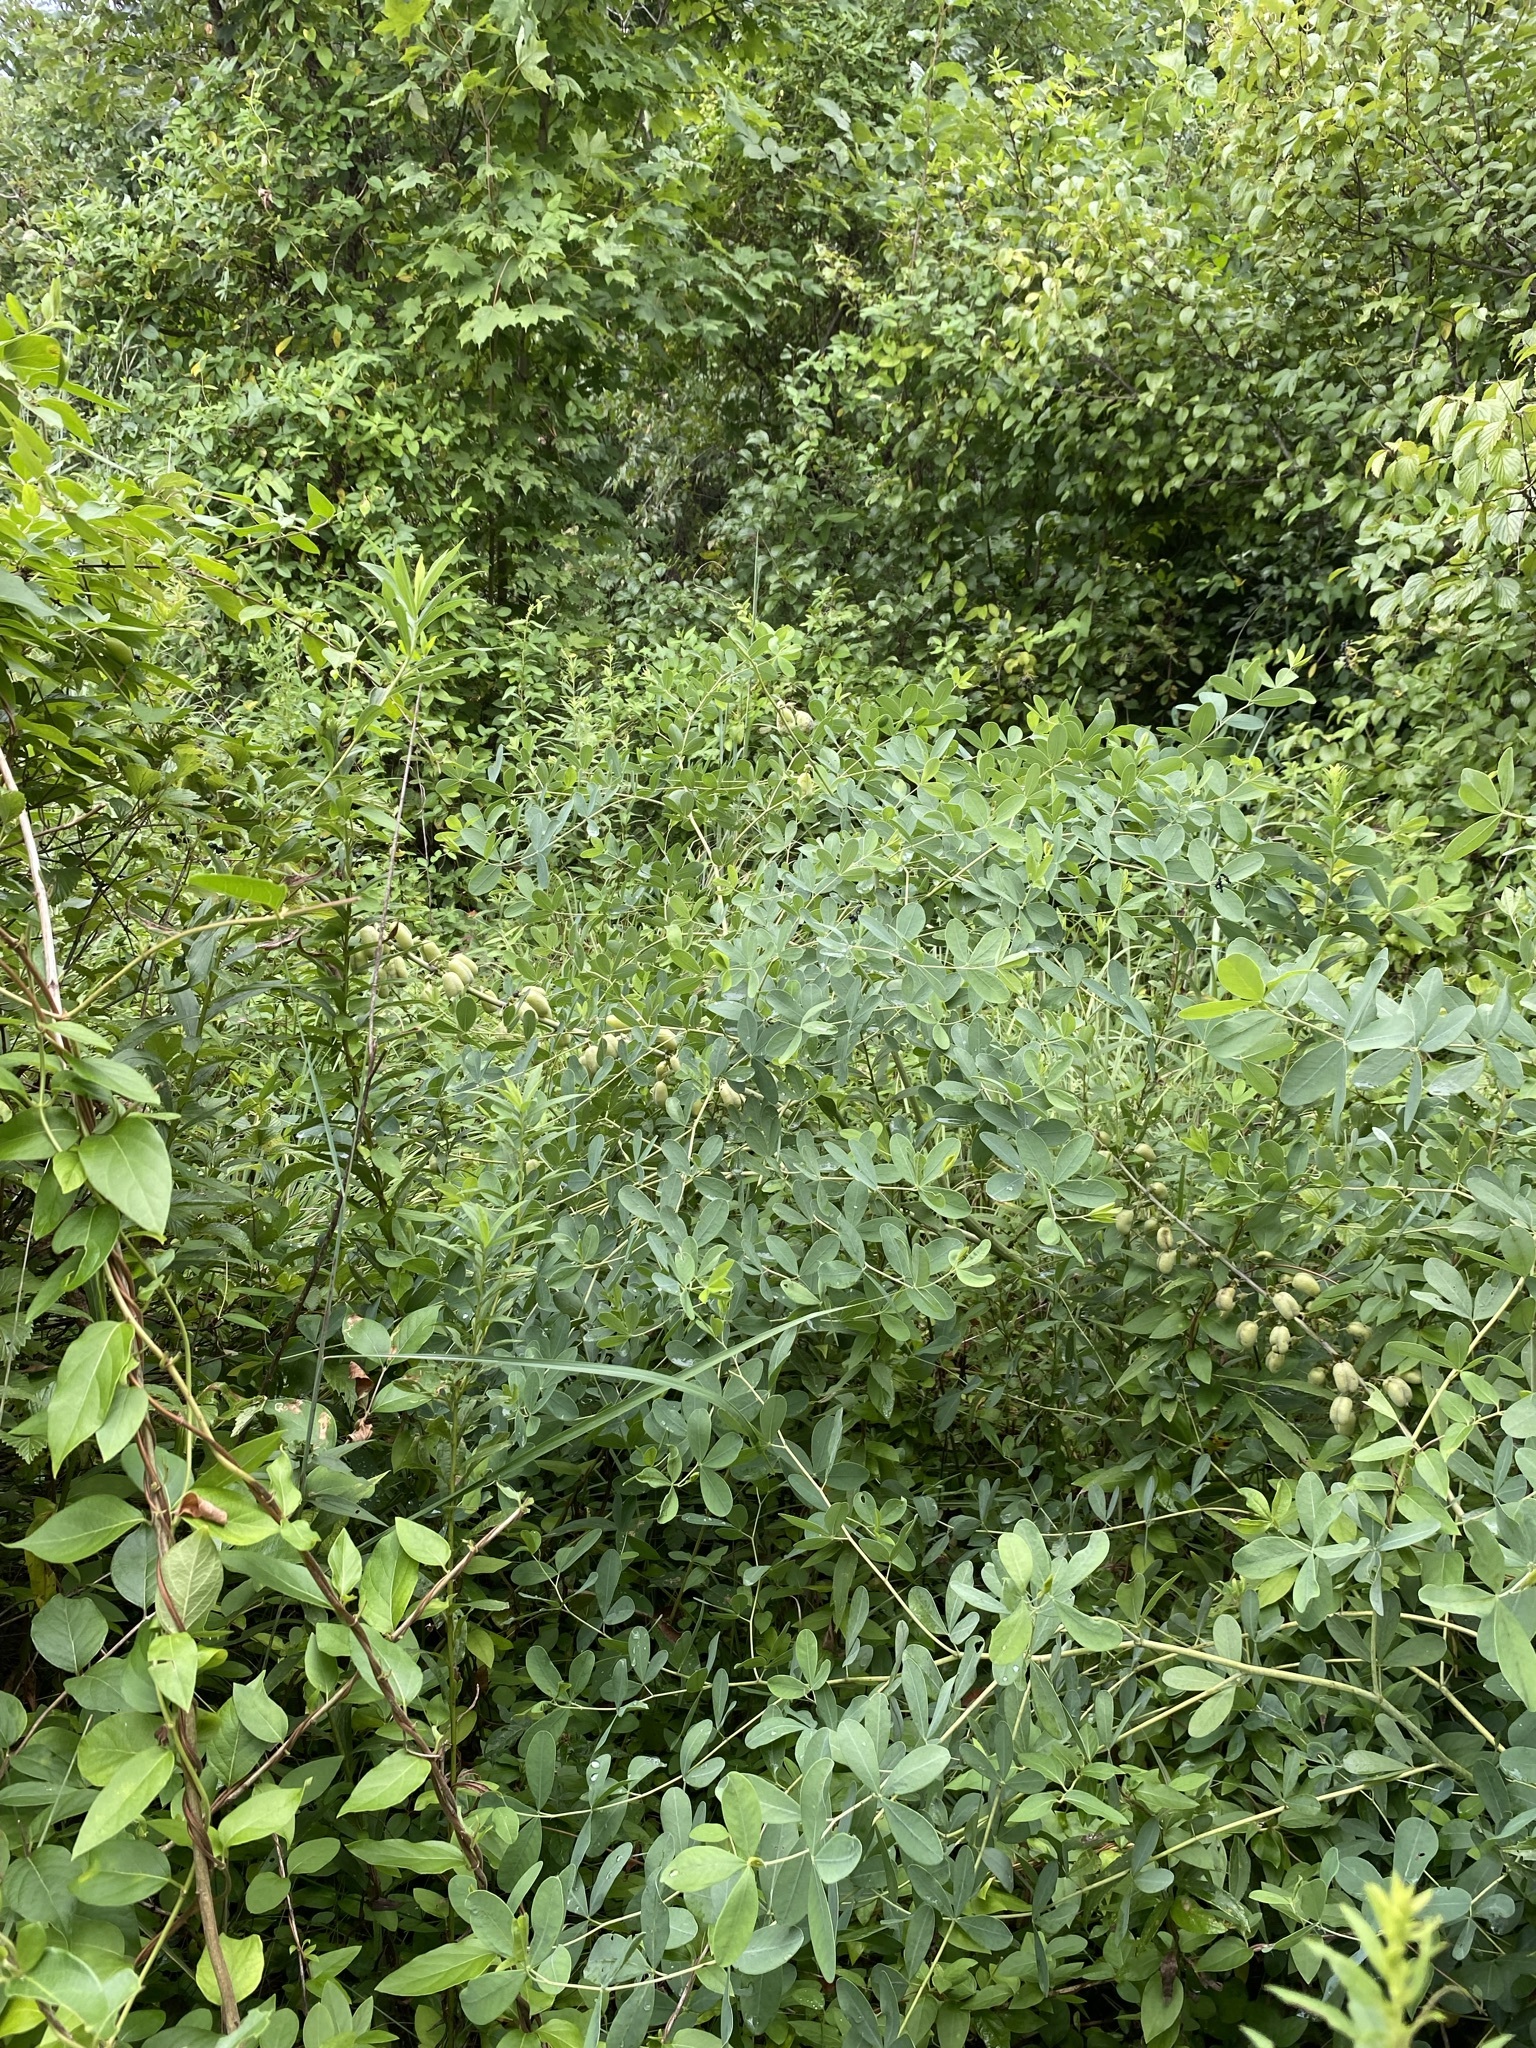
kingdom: Plantae
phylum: Tracheophyta
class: Magnoliopsida
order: Fabales
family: Fabaceae
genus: Baptisia
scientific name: Baptisia alba
